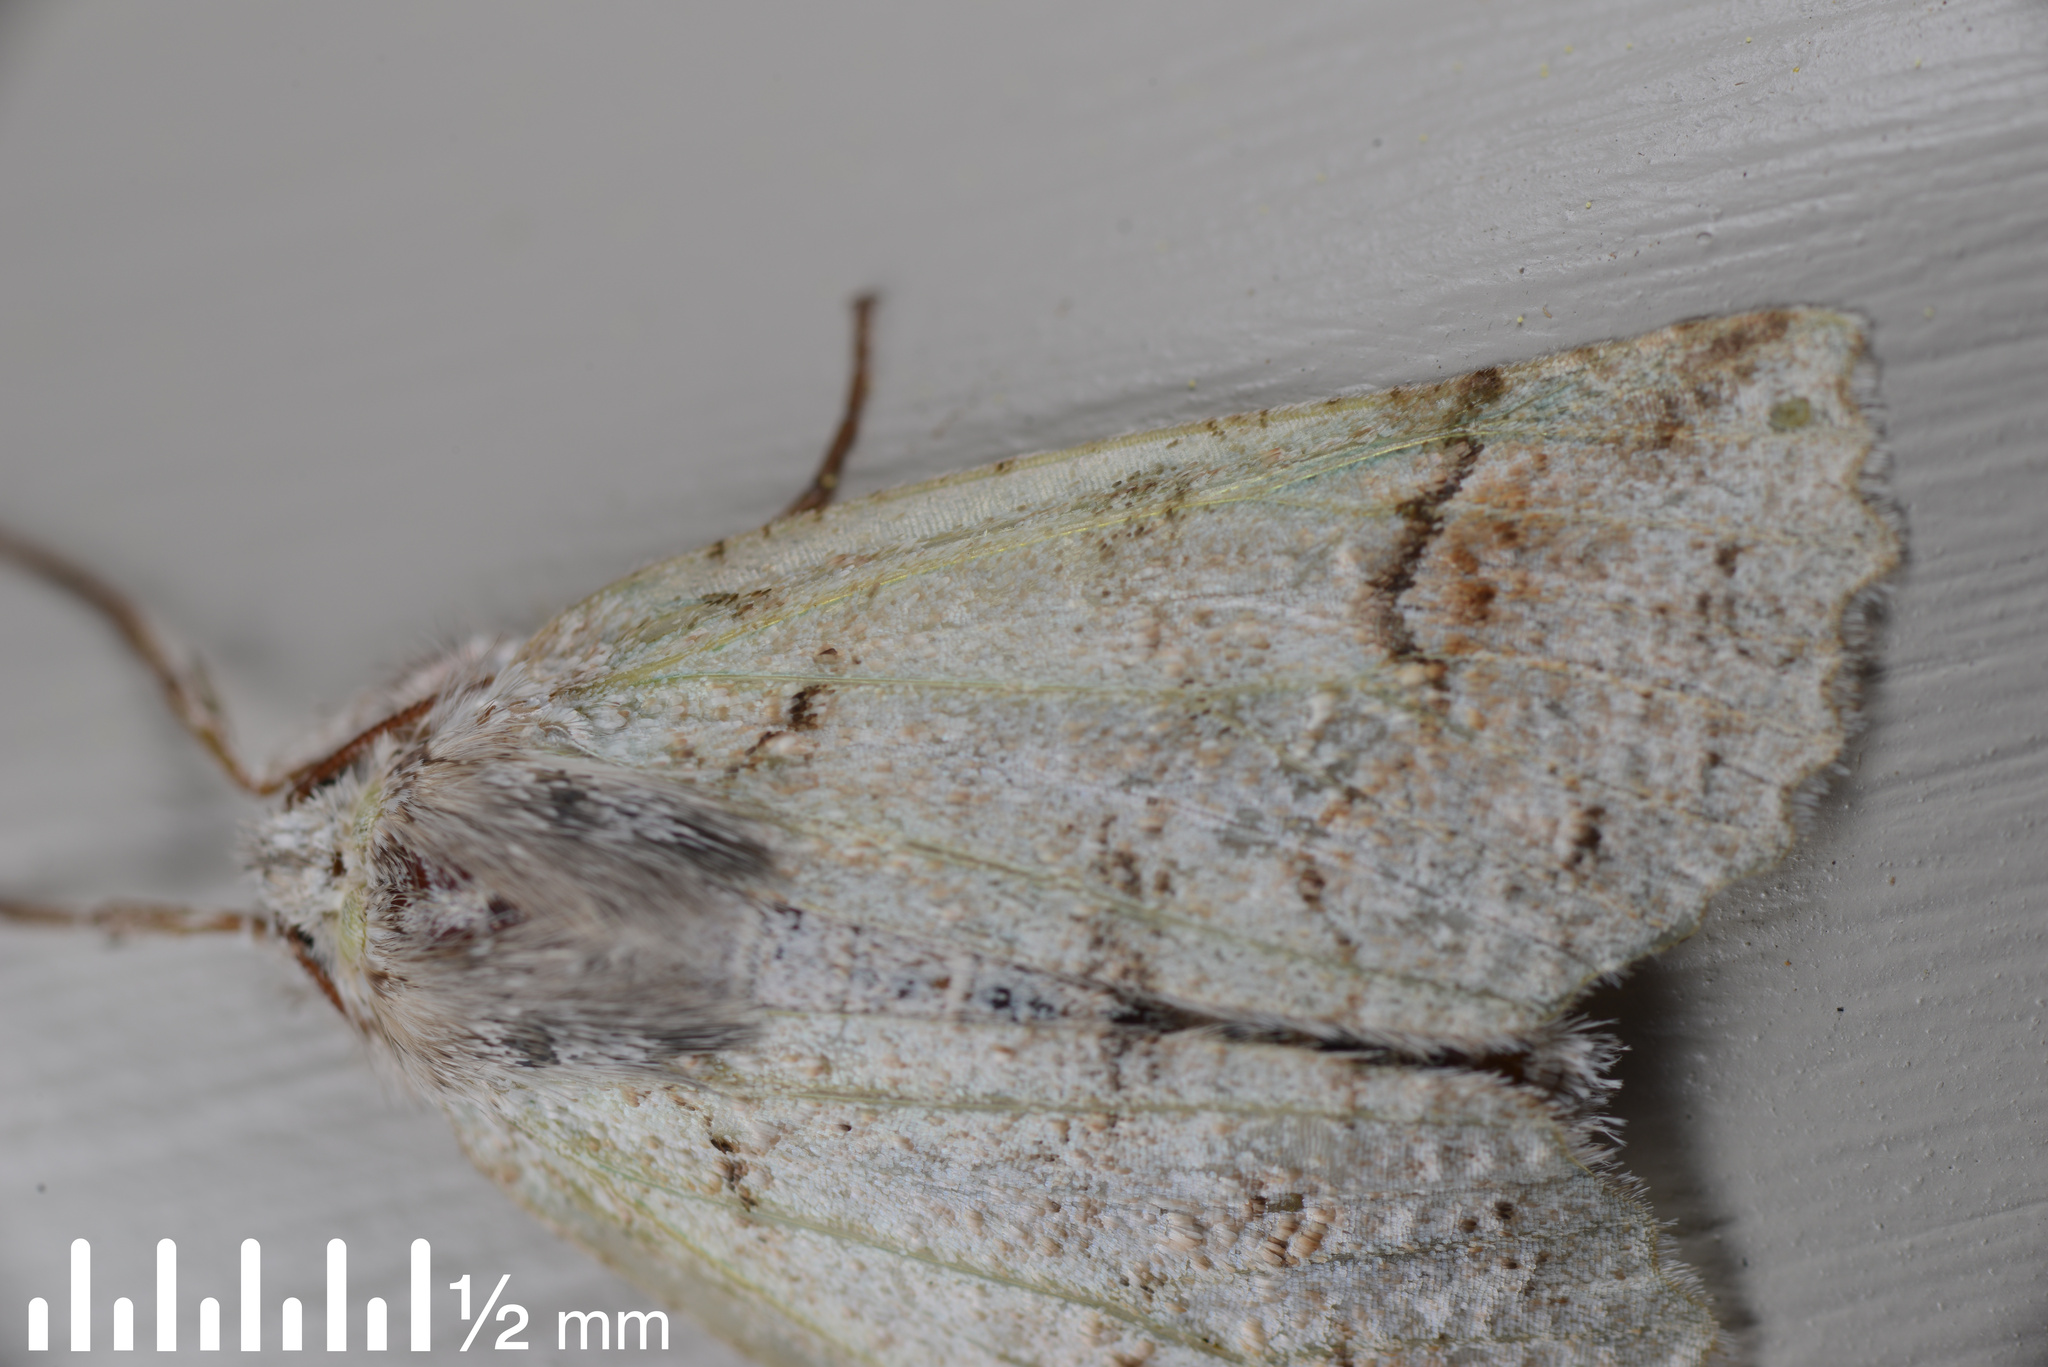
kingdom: Animalia
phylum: Arthropoda
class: Insecta
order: Lepidoptera
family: Geometridae
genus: Declana
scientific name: Declana floccosa
